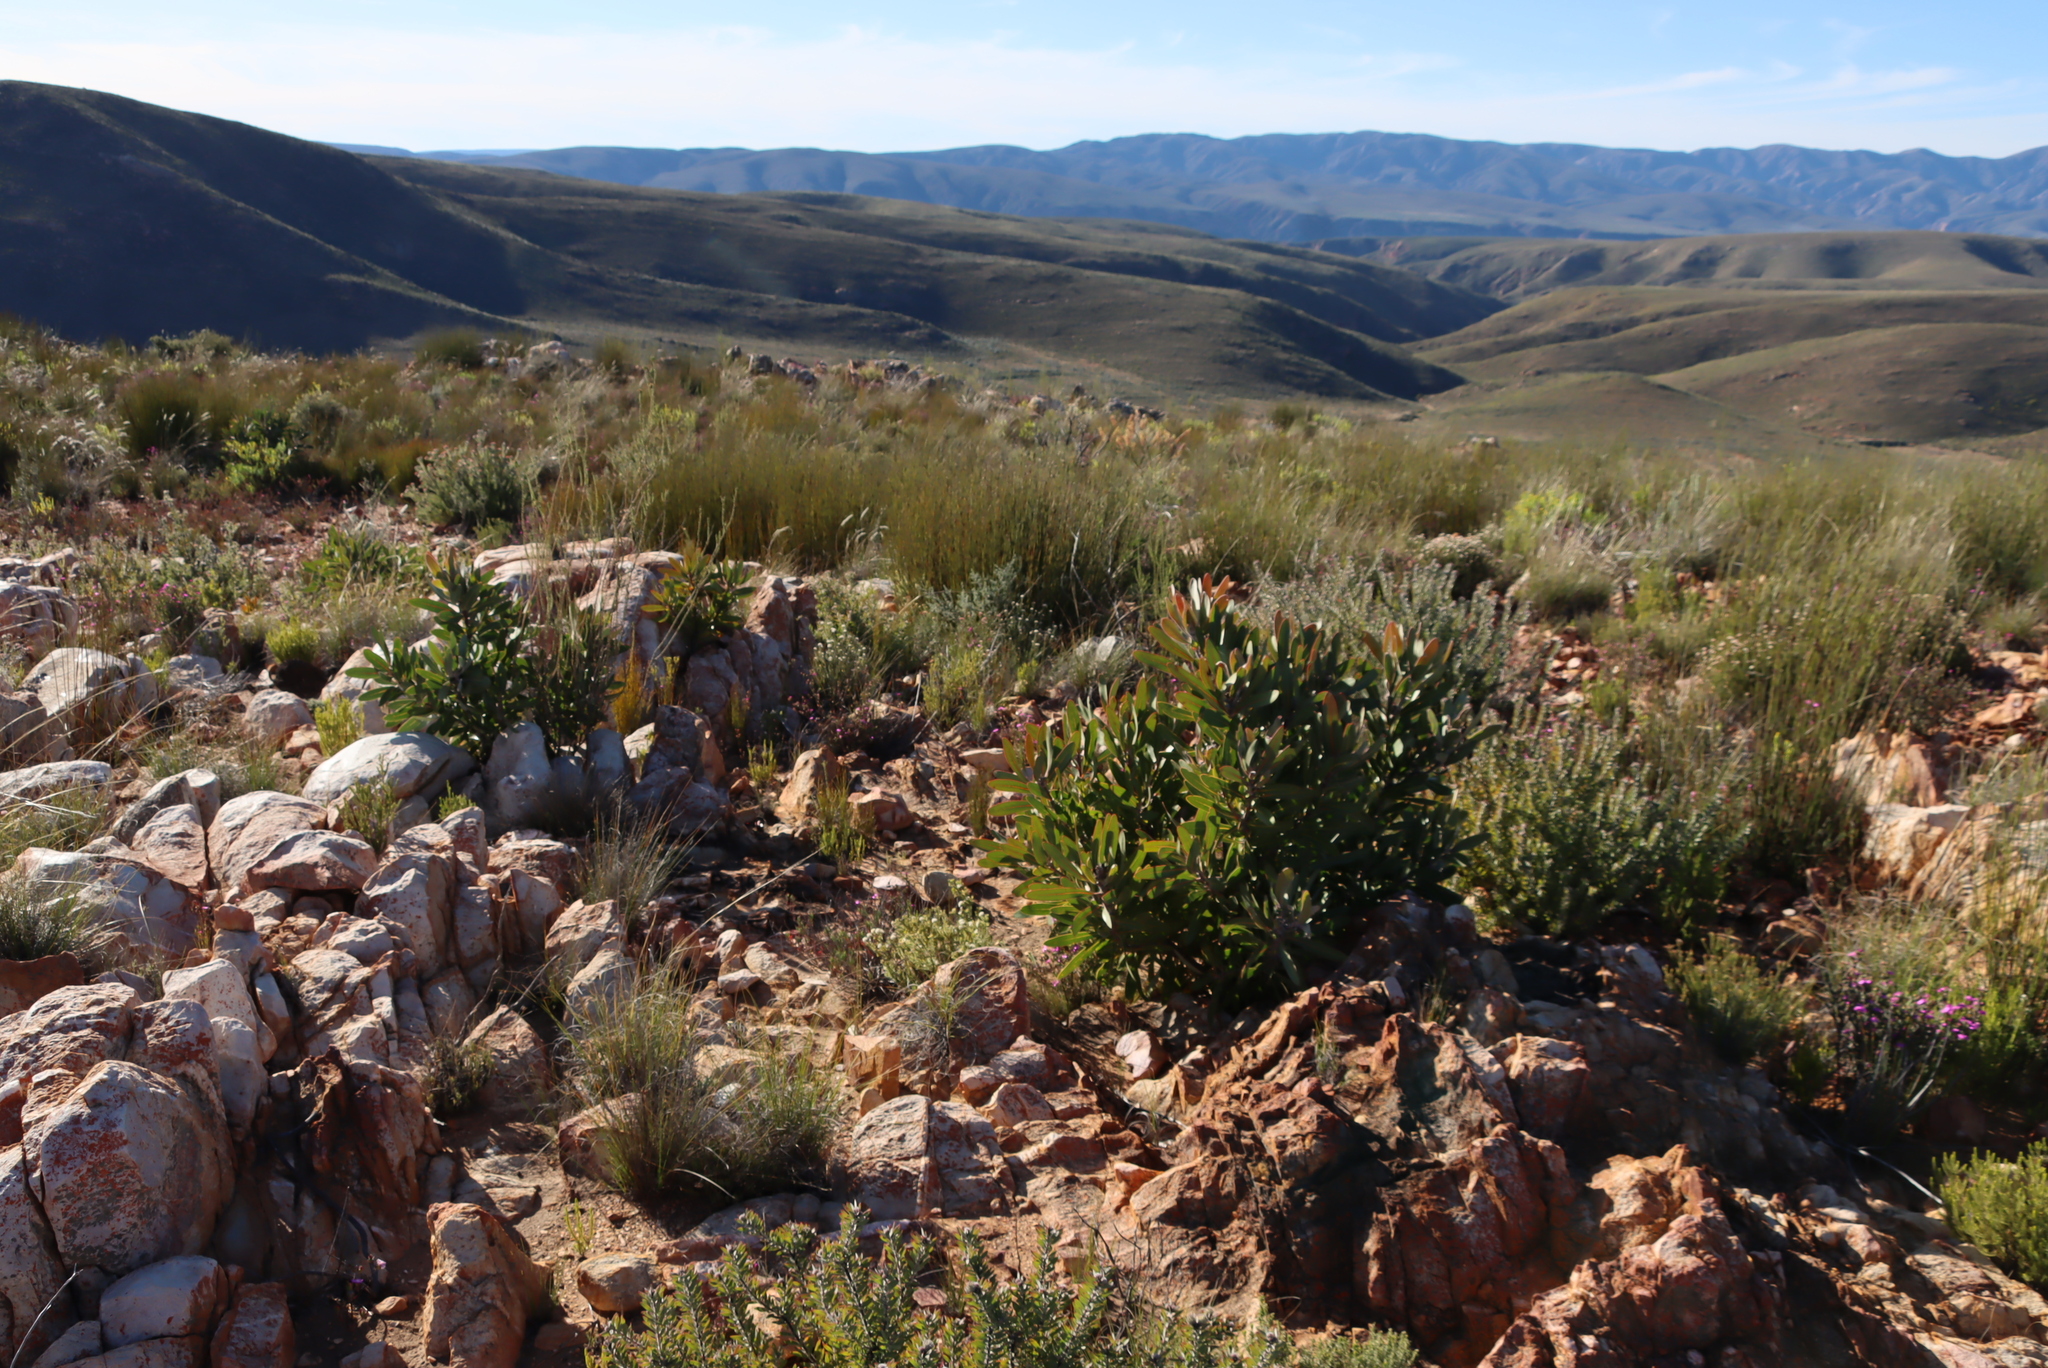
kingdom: Plantae
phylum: Tracheophyta
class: Magnoliopsida
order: Proteales
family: Proteaceae
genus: Protea
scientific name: Protea lorifolia
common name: Strap-leaved protea
